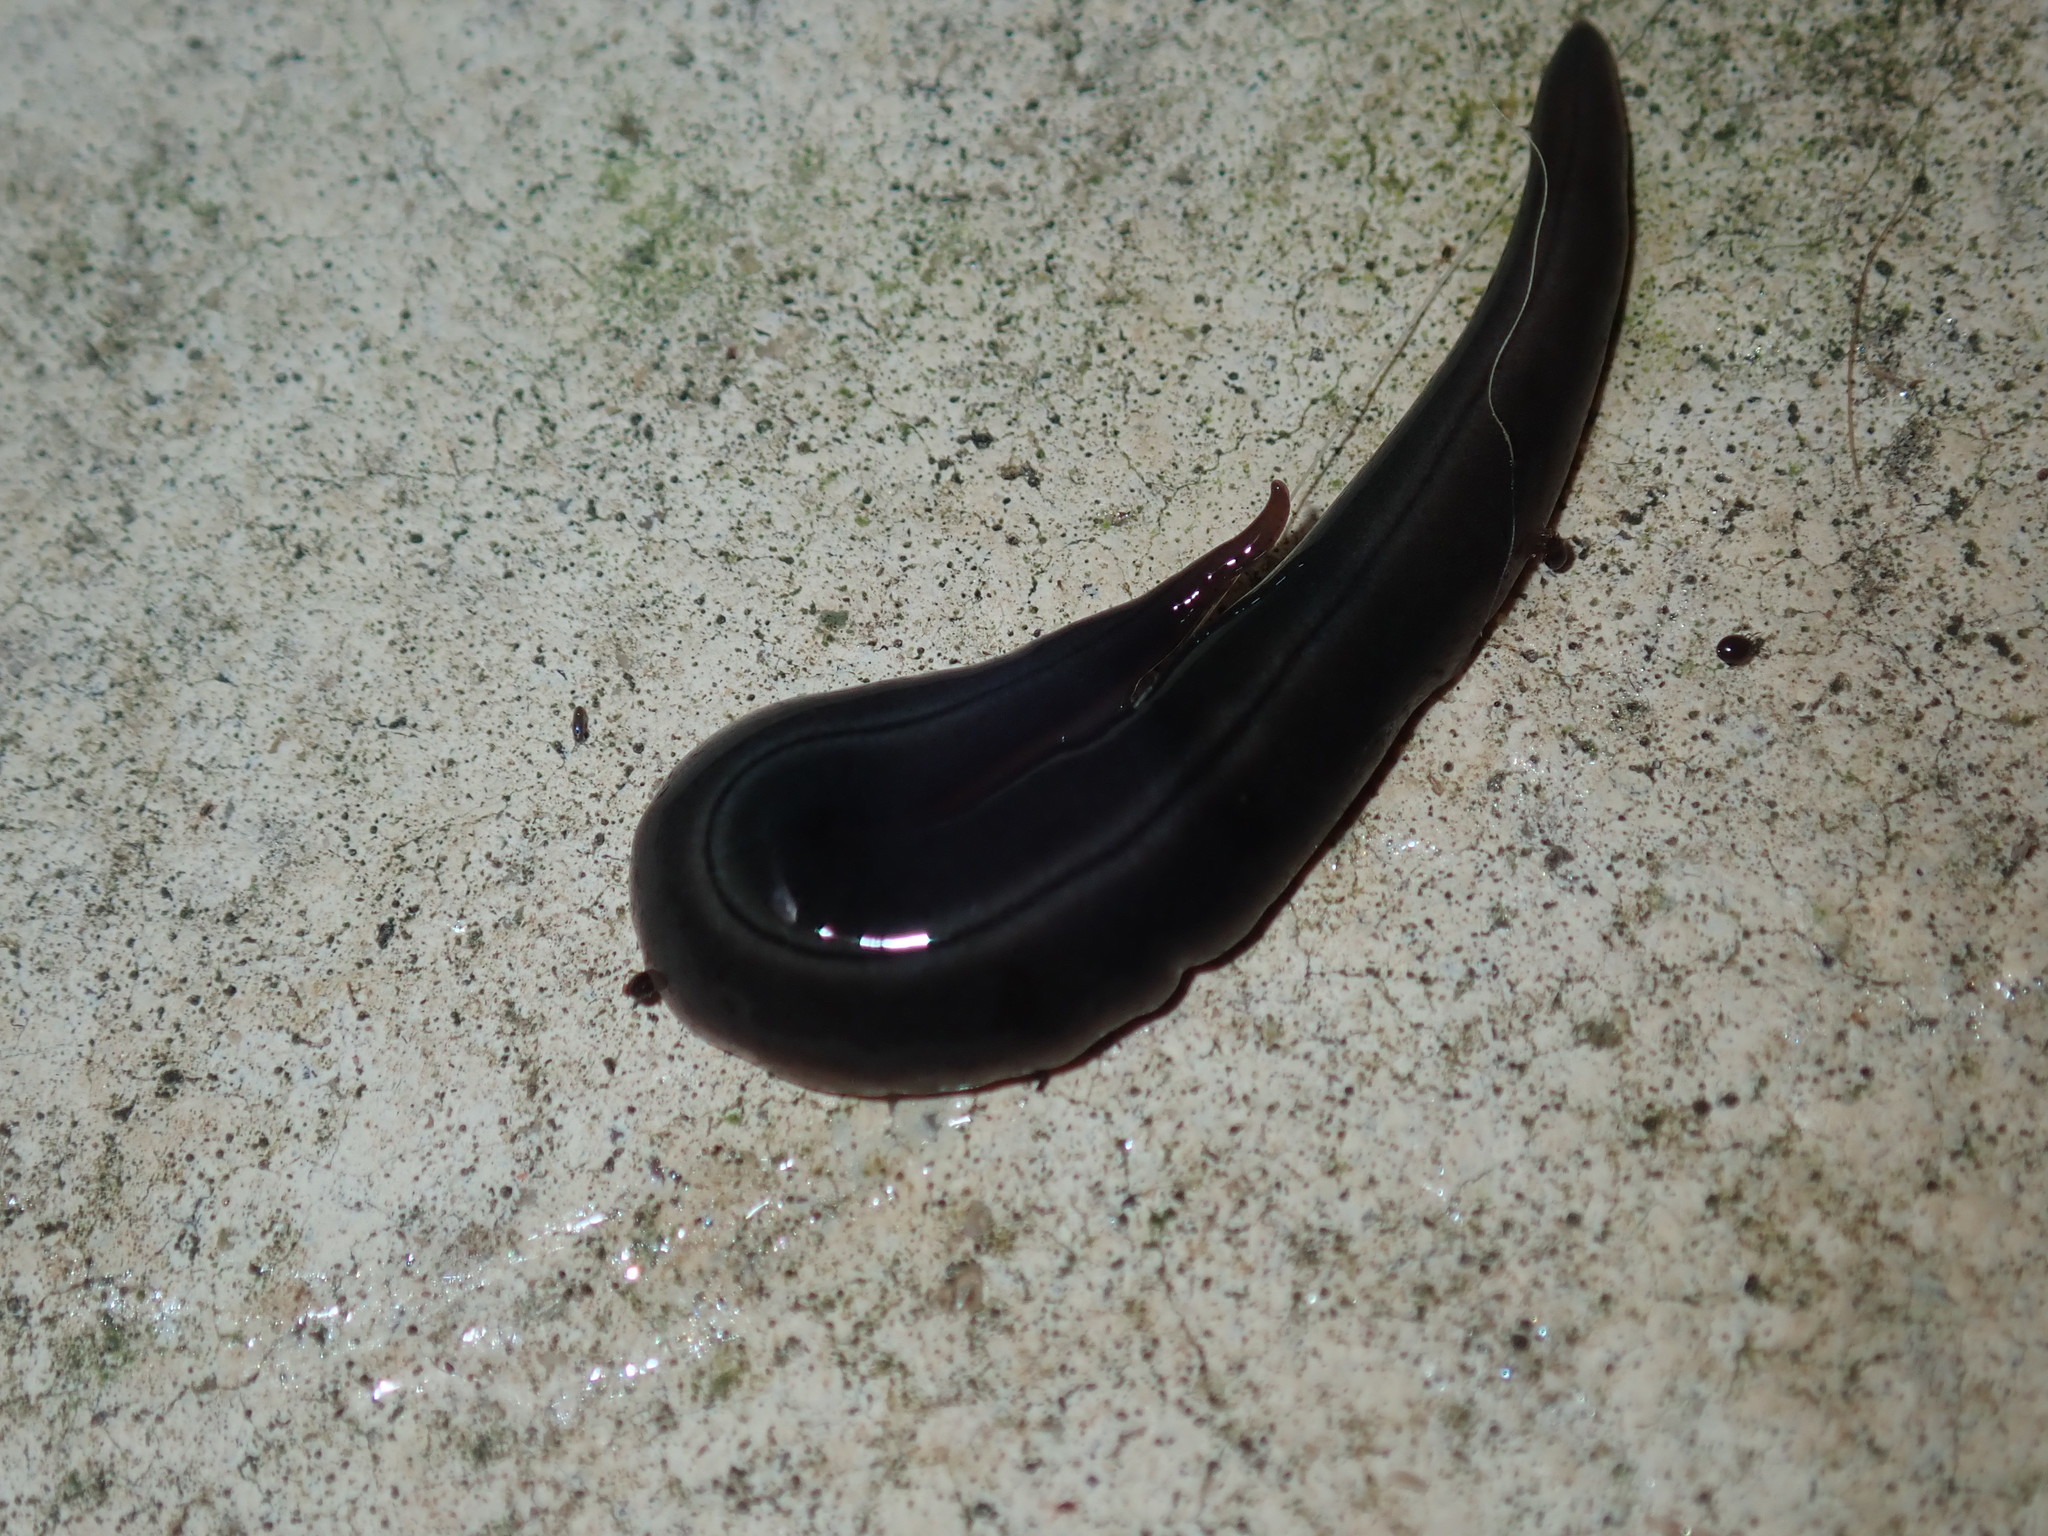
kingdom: Animalia
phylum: Platyhelminthes
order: Tricladida
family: Geoplanidae
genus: Parakontikia
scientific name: Parakontikia ventrolineata
